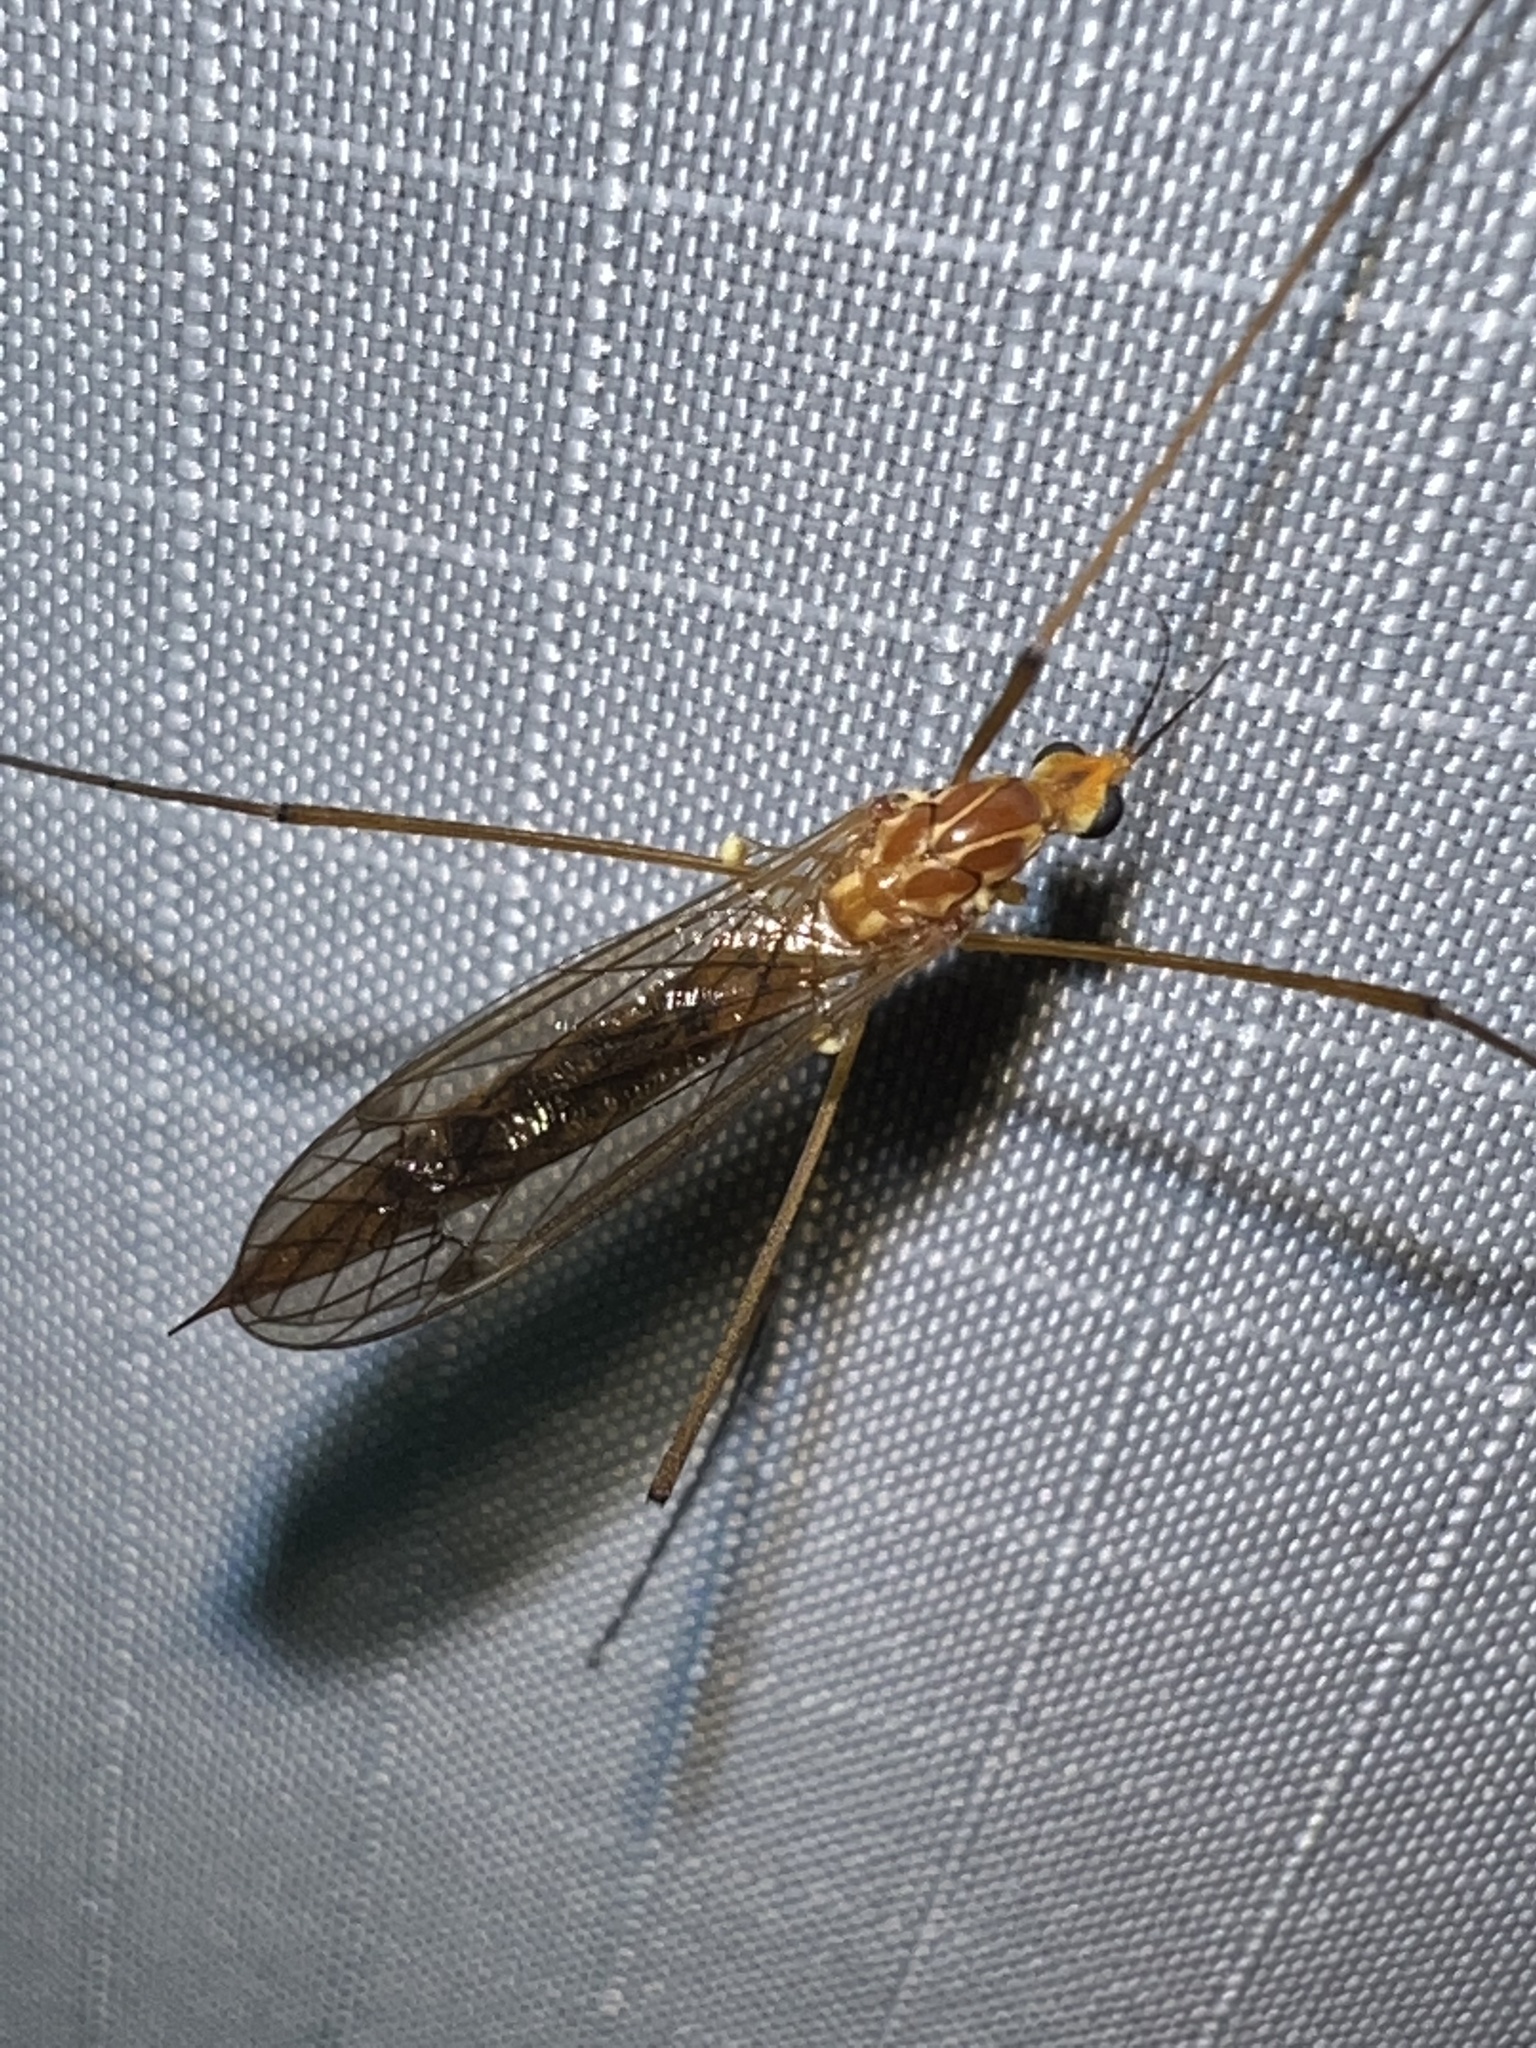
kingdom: Animalia
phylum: Arthropoda
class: Insecta
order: Diptera
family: Tipulidae
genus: Nephrotoma
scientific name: Nephrotoma ferruginea
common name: Ferruginous tiger crane fly
